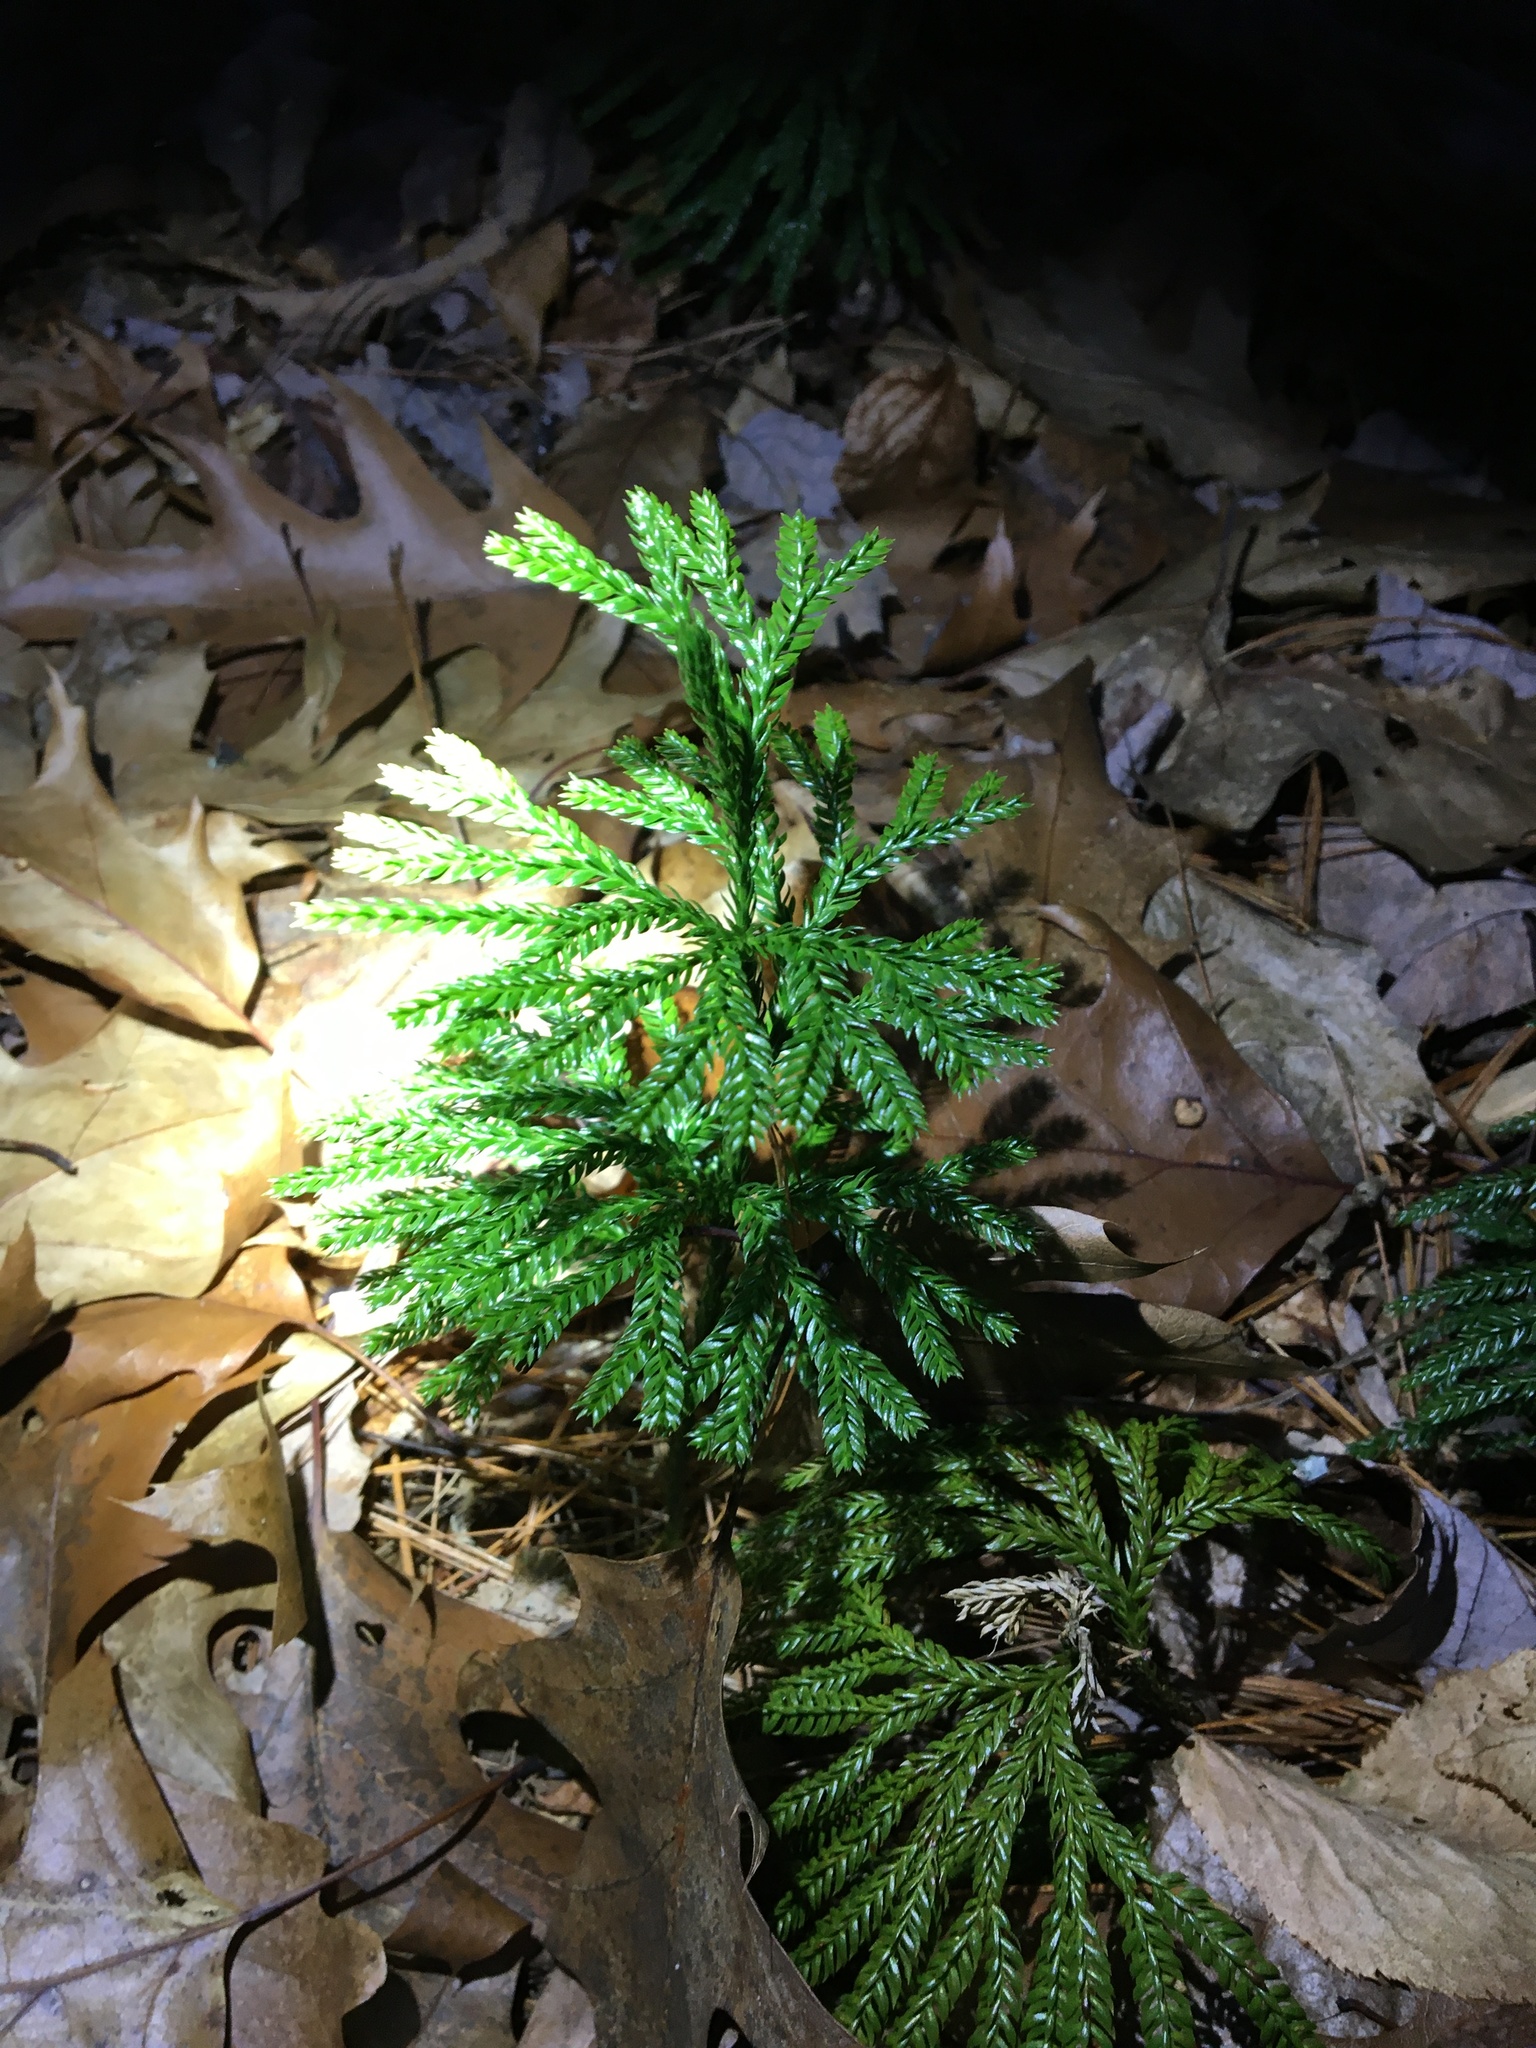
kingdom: Plantae
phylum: Tracheophyta
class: Lycopodiopsida
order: Lycopodiales
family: Lycopodiaceae
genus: Dendrolycopodium
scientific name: Dendrolycopodium obscurum
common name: Common ground-pine
